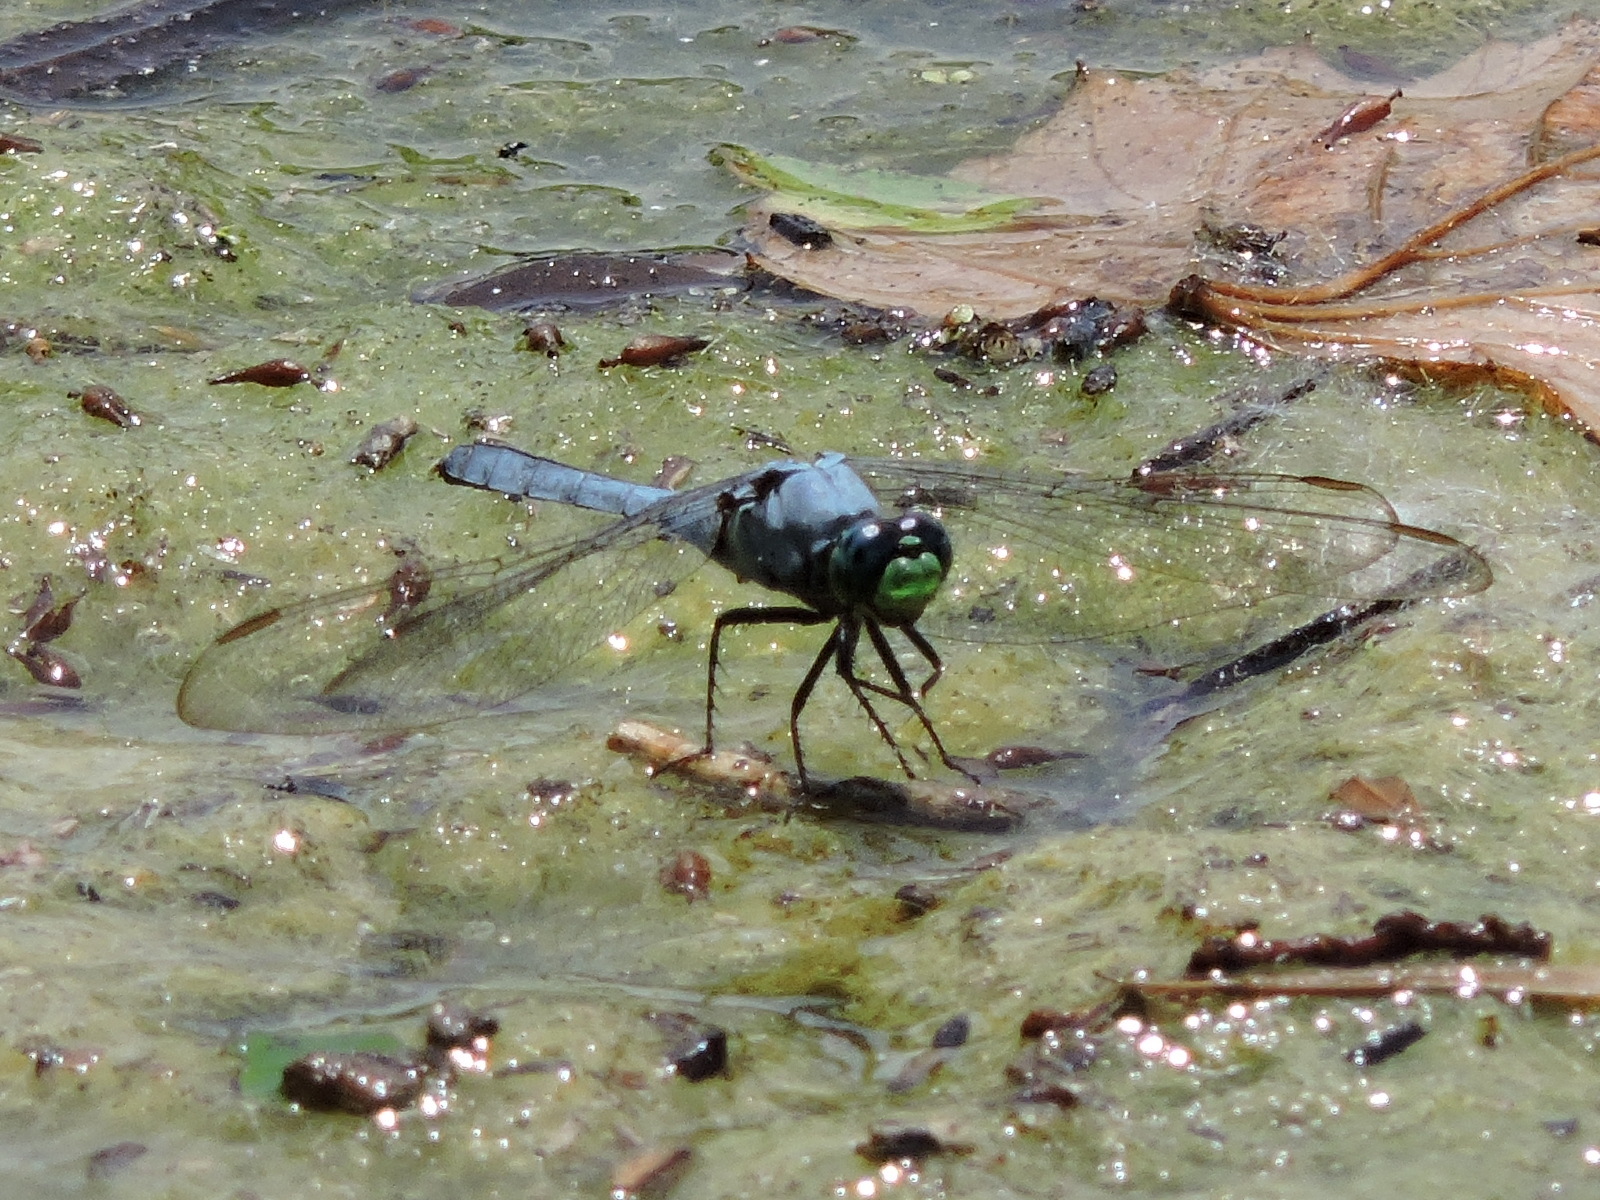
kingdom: Animalia
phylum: Arthropoda
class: Insecta
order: Odonata
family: Libellulidae
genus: Erythemis
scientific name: Erythemis simplicicollis
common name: Eastern pondhawk
